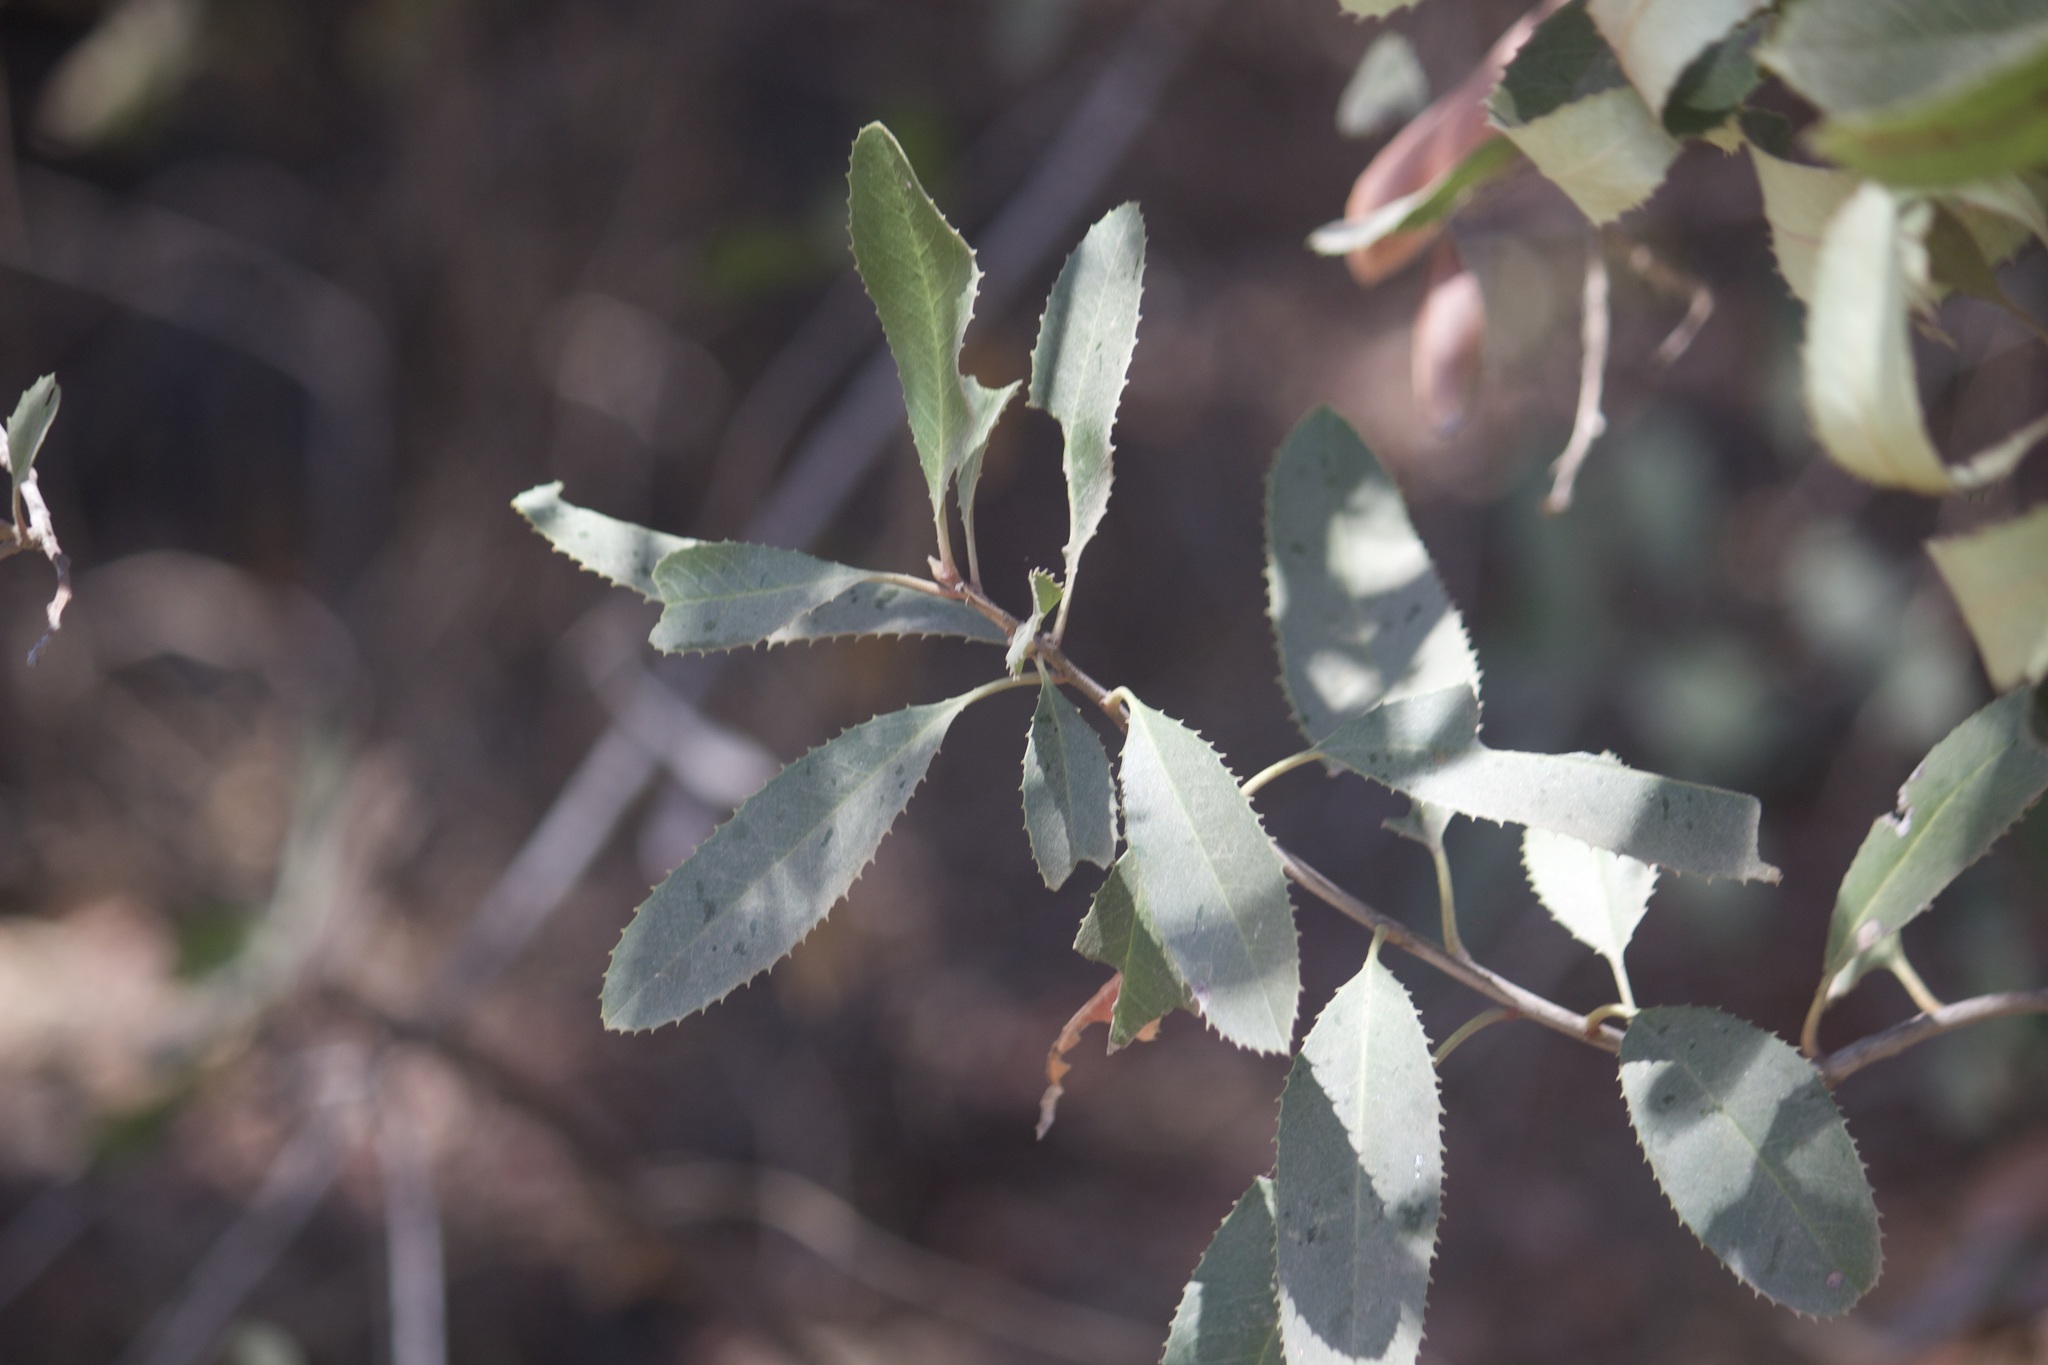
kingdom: Plantae
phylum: Tracheophyta
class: Magnoliopsida
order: Rosales
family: Rosaceae
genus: Heteromeles
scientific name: Heteromeles arbutifolia
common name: California-holly
